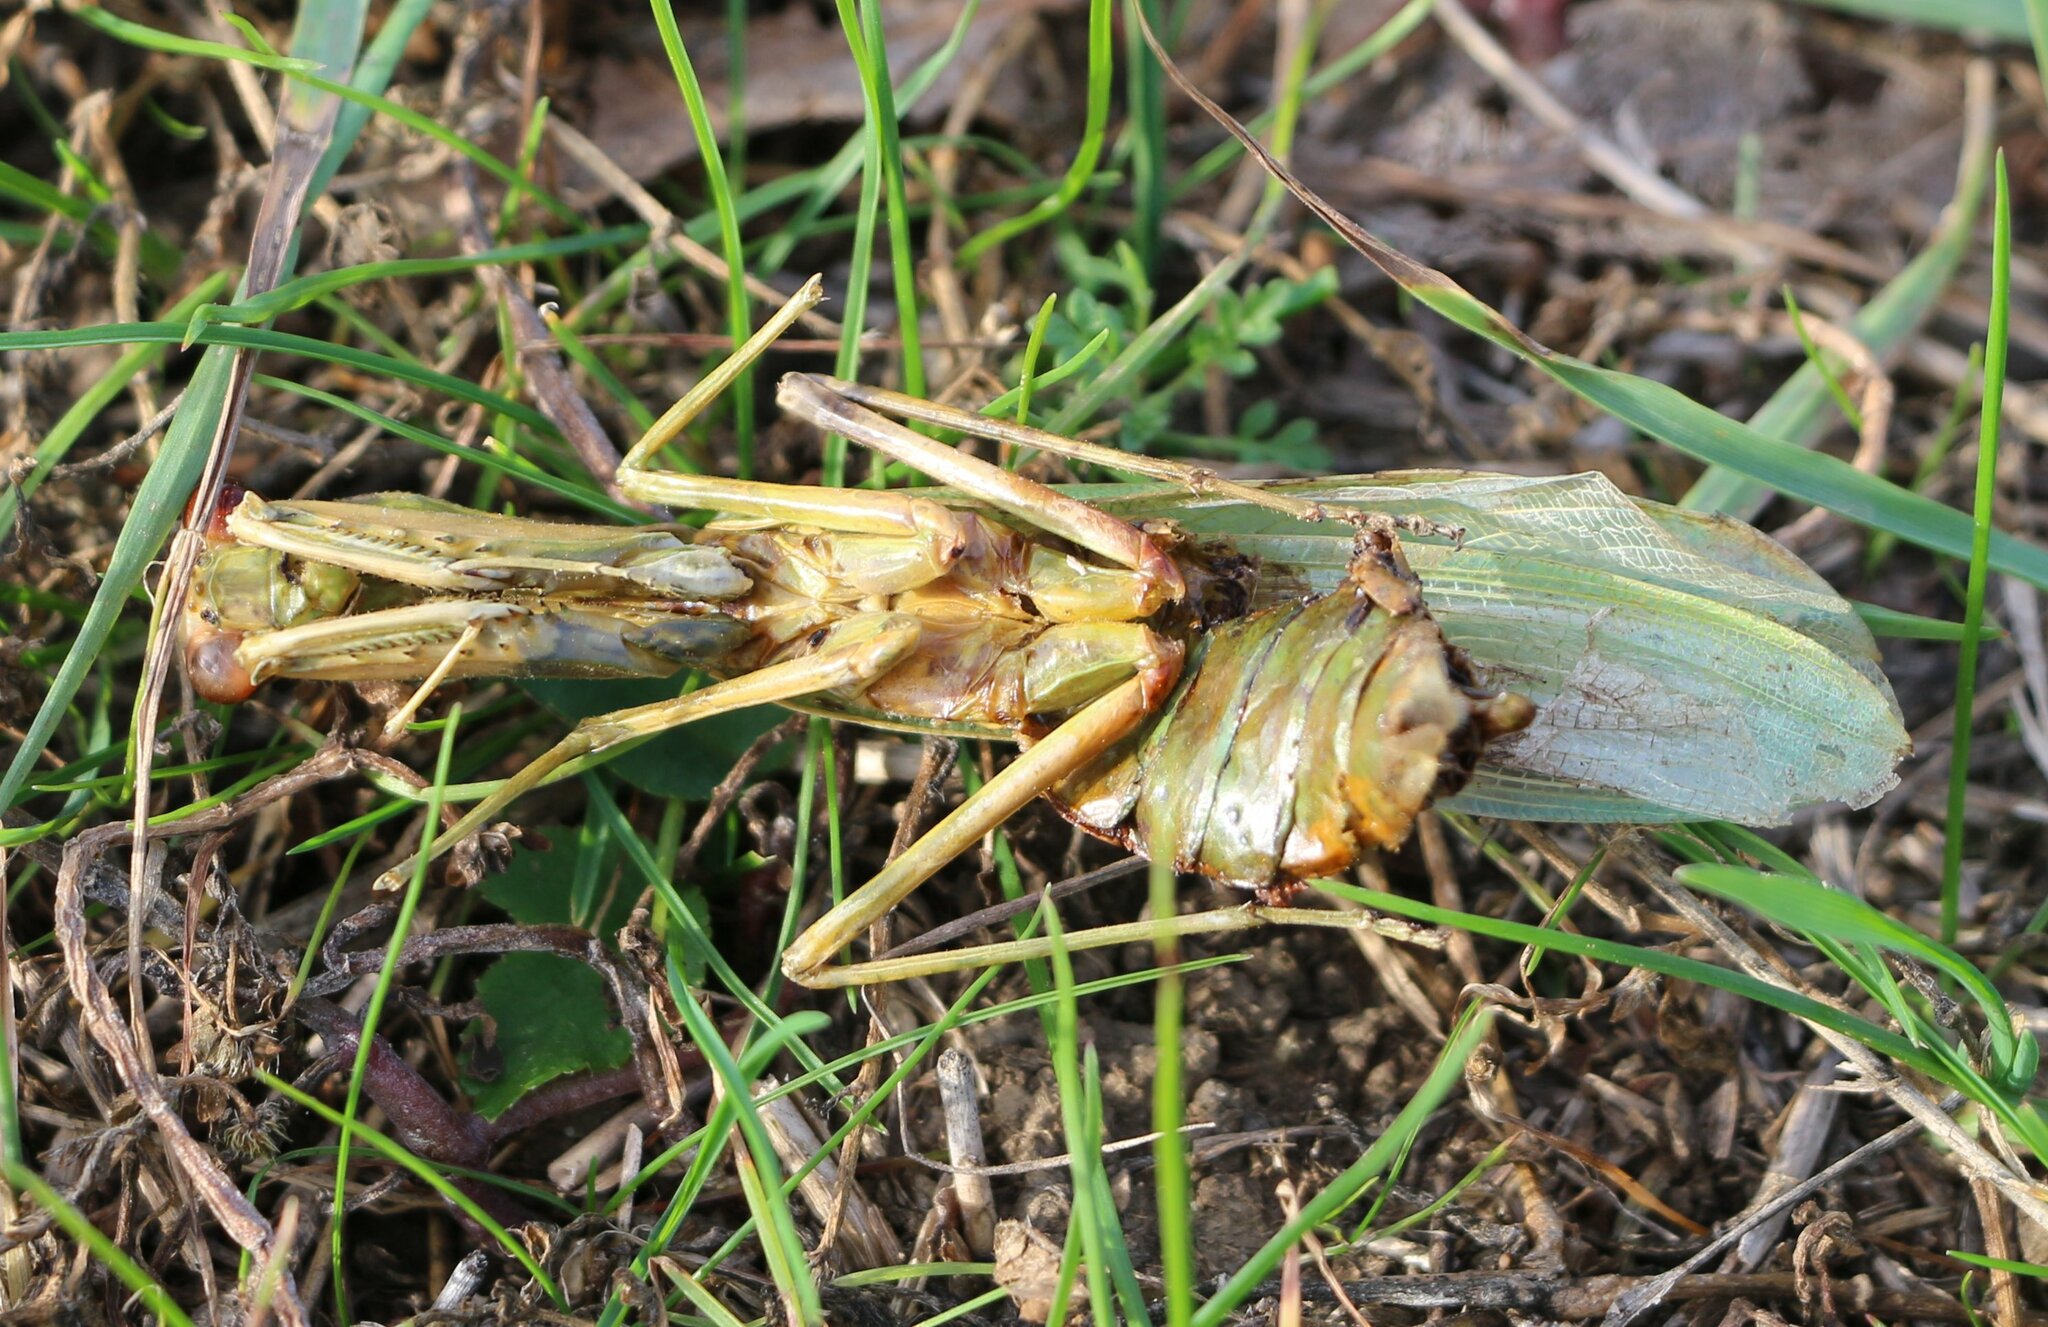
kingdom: Animalia
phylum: Arthropoda
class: Insecta
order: Mantodea
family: Mantidae
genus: Hierodula
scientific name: Hierodula transcaucasica
